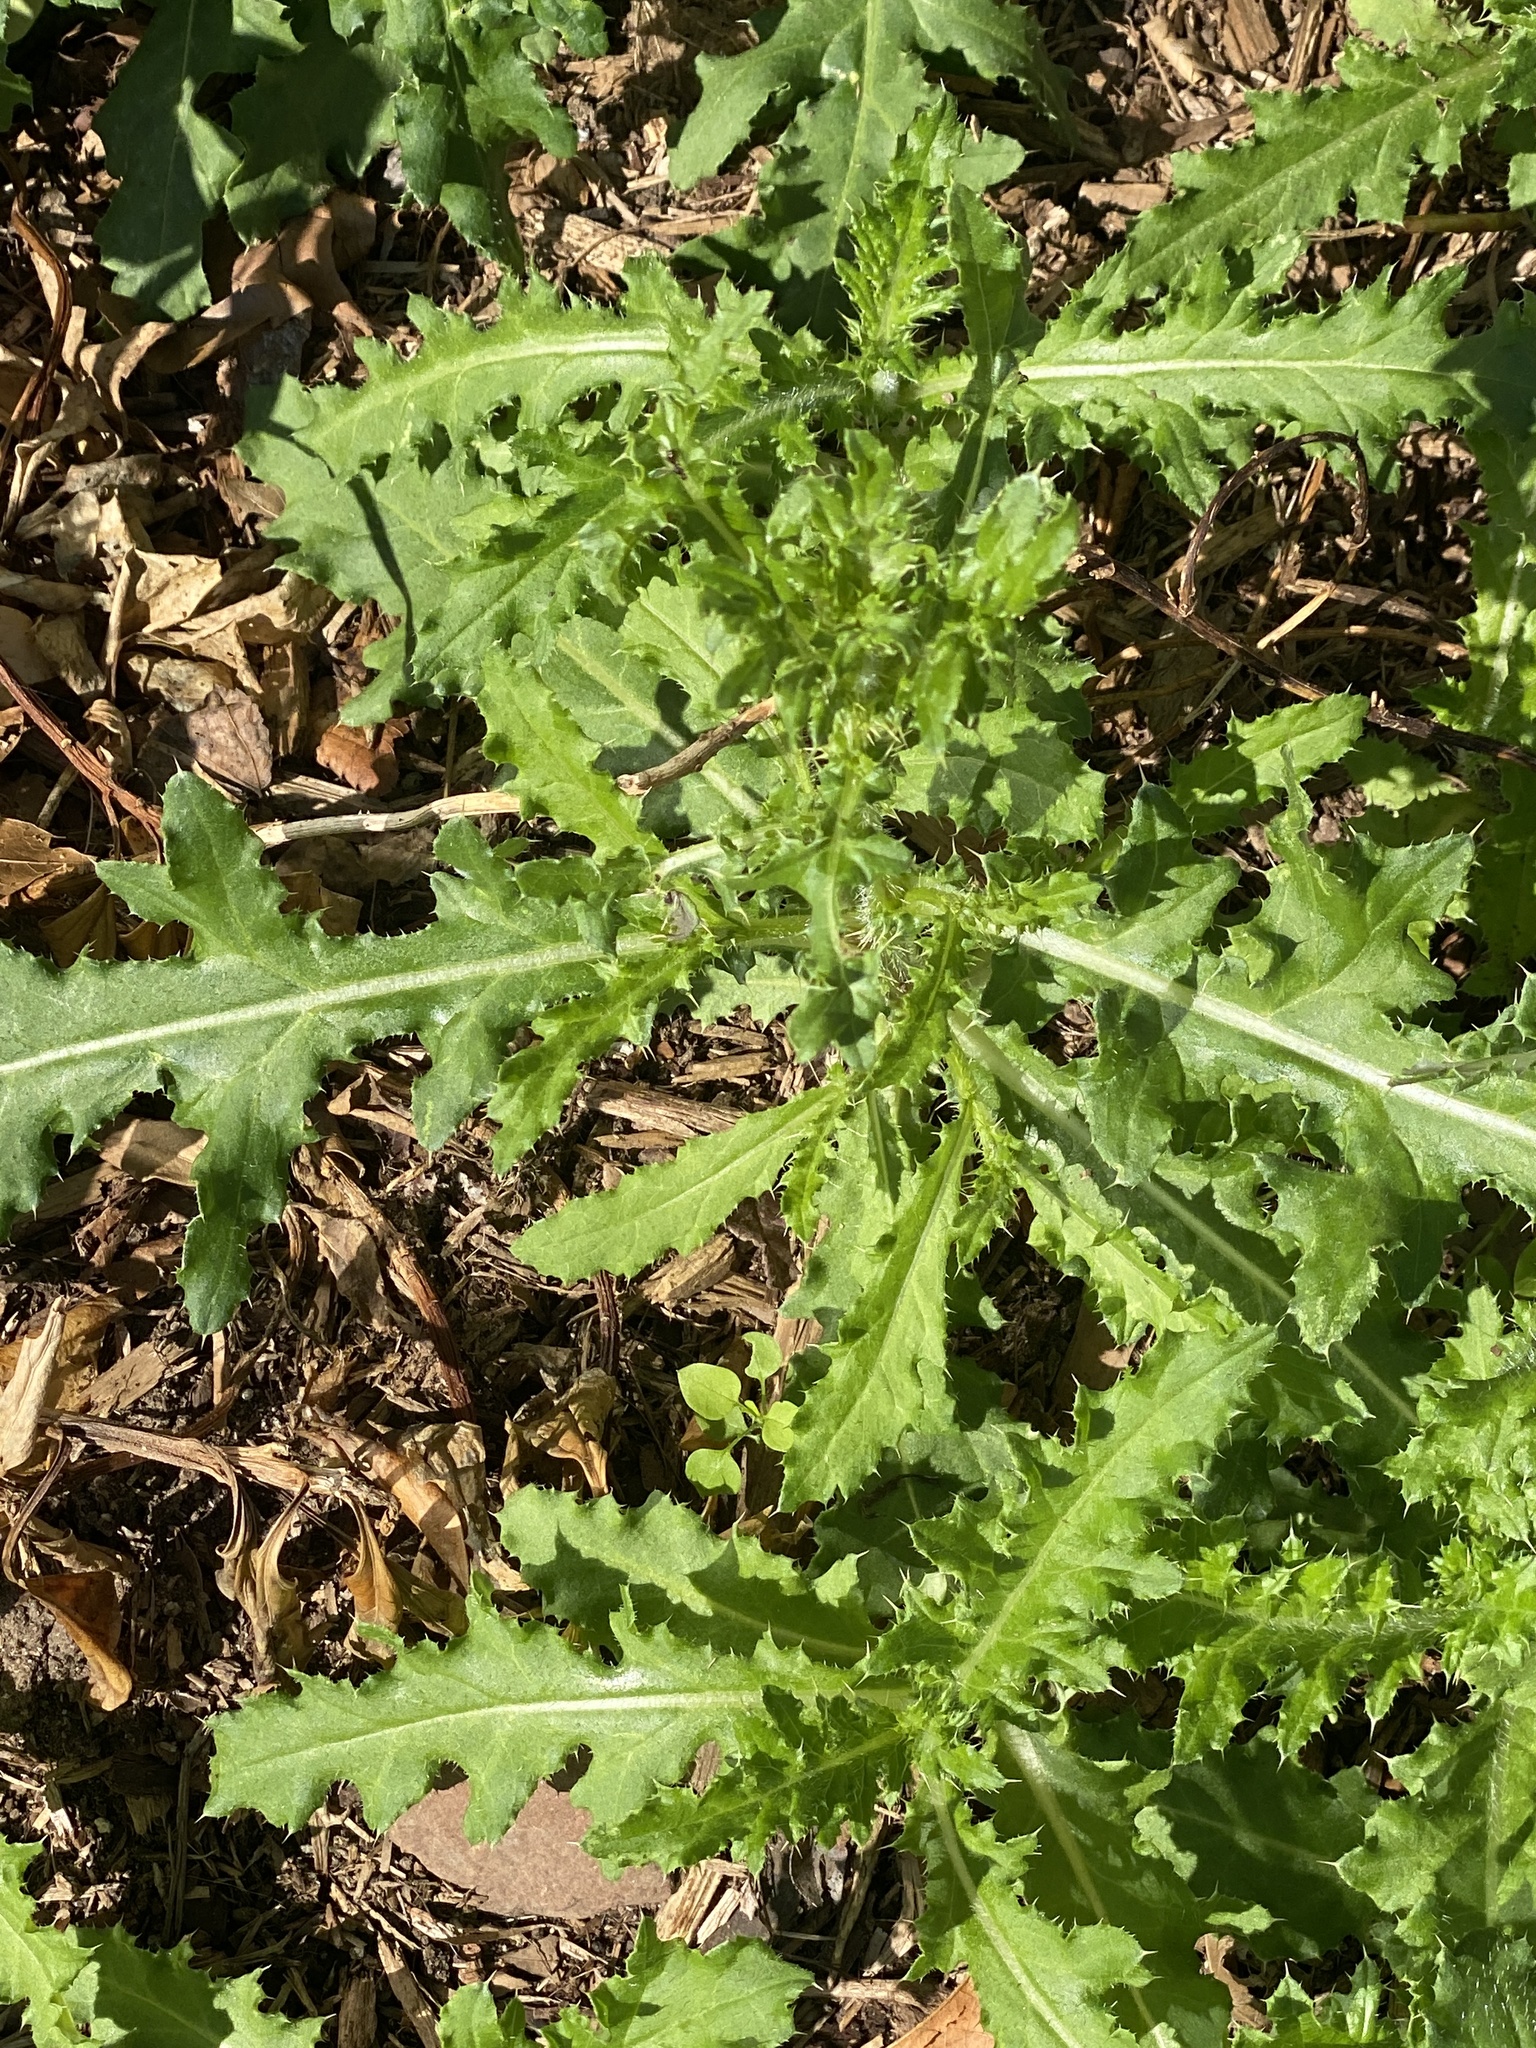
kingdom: Plantae
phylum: Tracheophyta
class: Magnoliopsida
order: Asterales
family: Asteraceae
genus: Cirsium
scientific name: Cirsium arvense
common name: Creeping thistle
